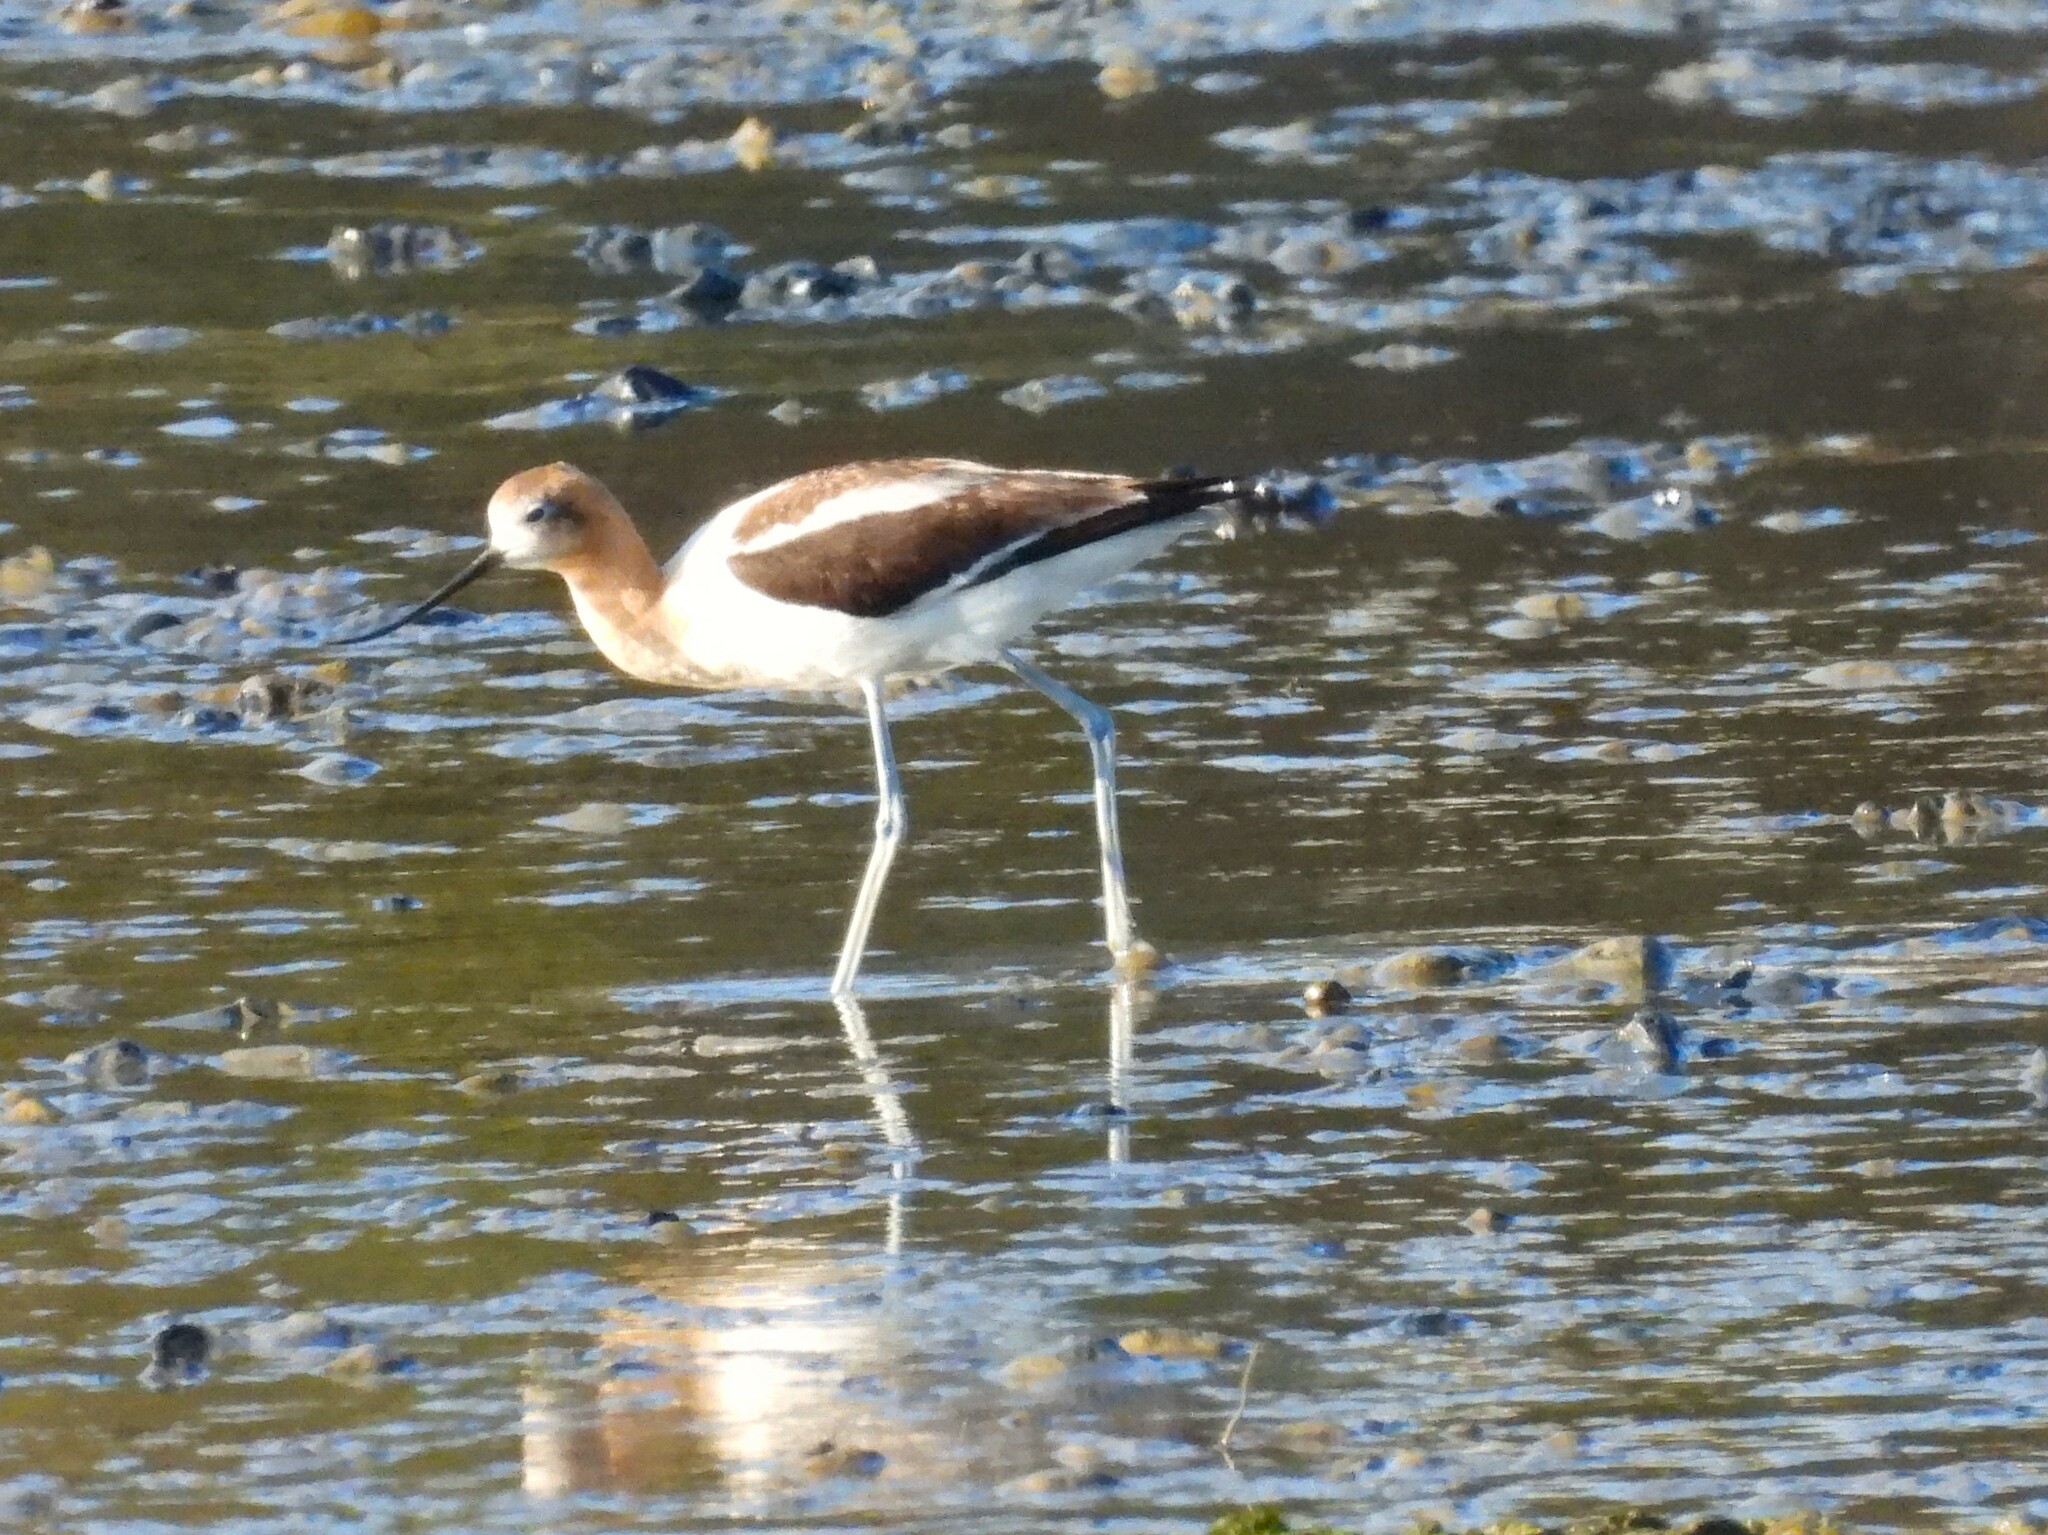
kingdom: Animalia
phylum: Chordata
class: Aves
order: Charadriiformes
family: Recurvirostridae
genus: Recurvirostra
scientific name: Recurvirostra americana
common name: American avocet
